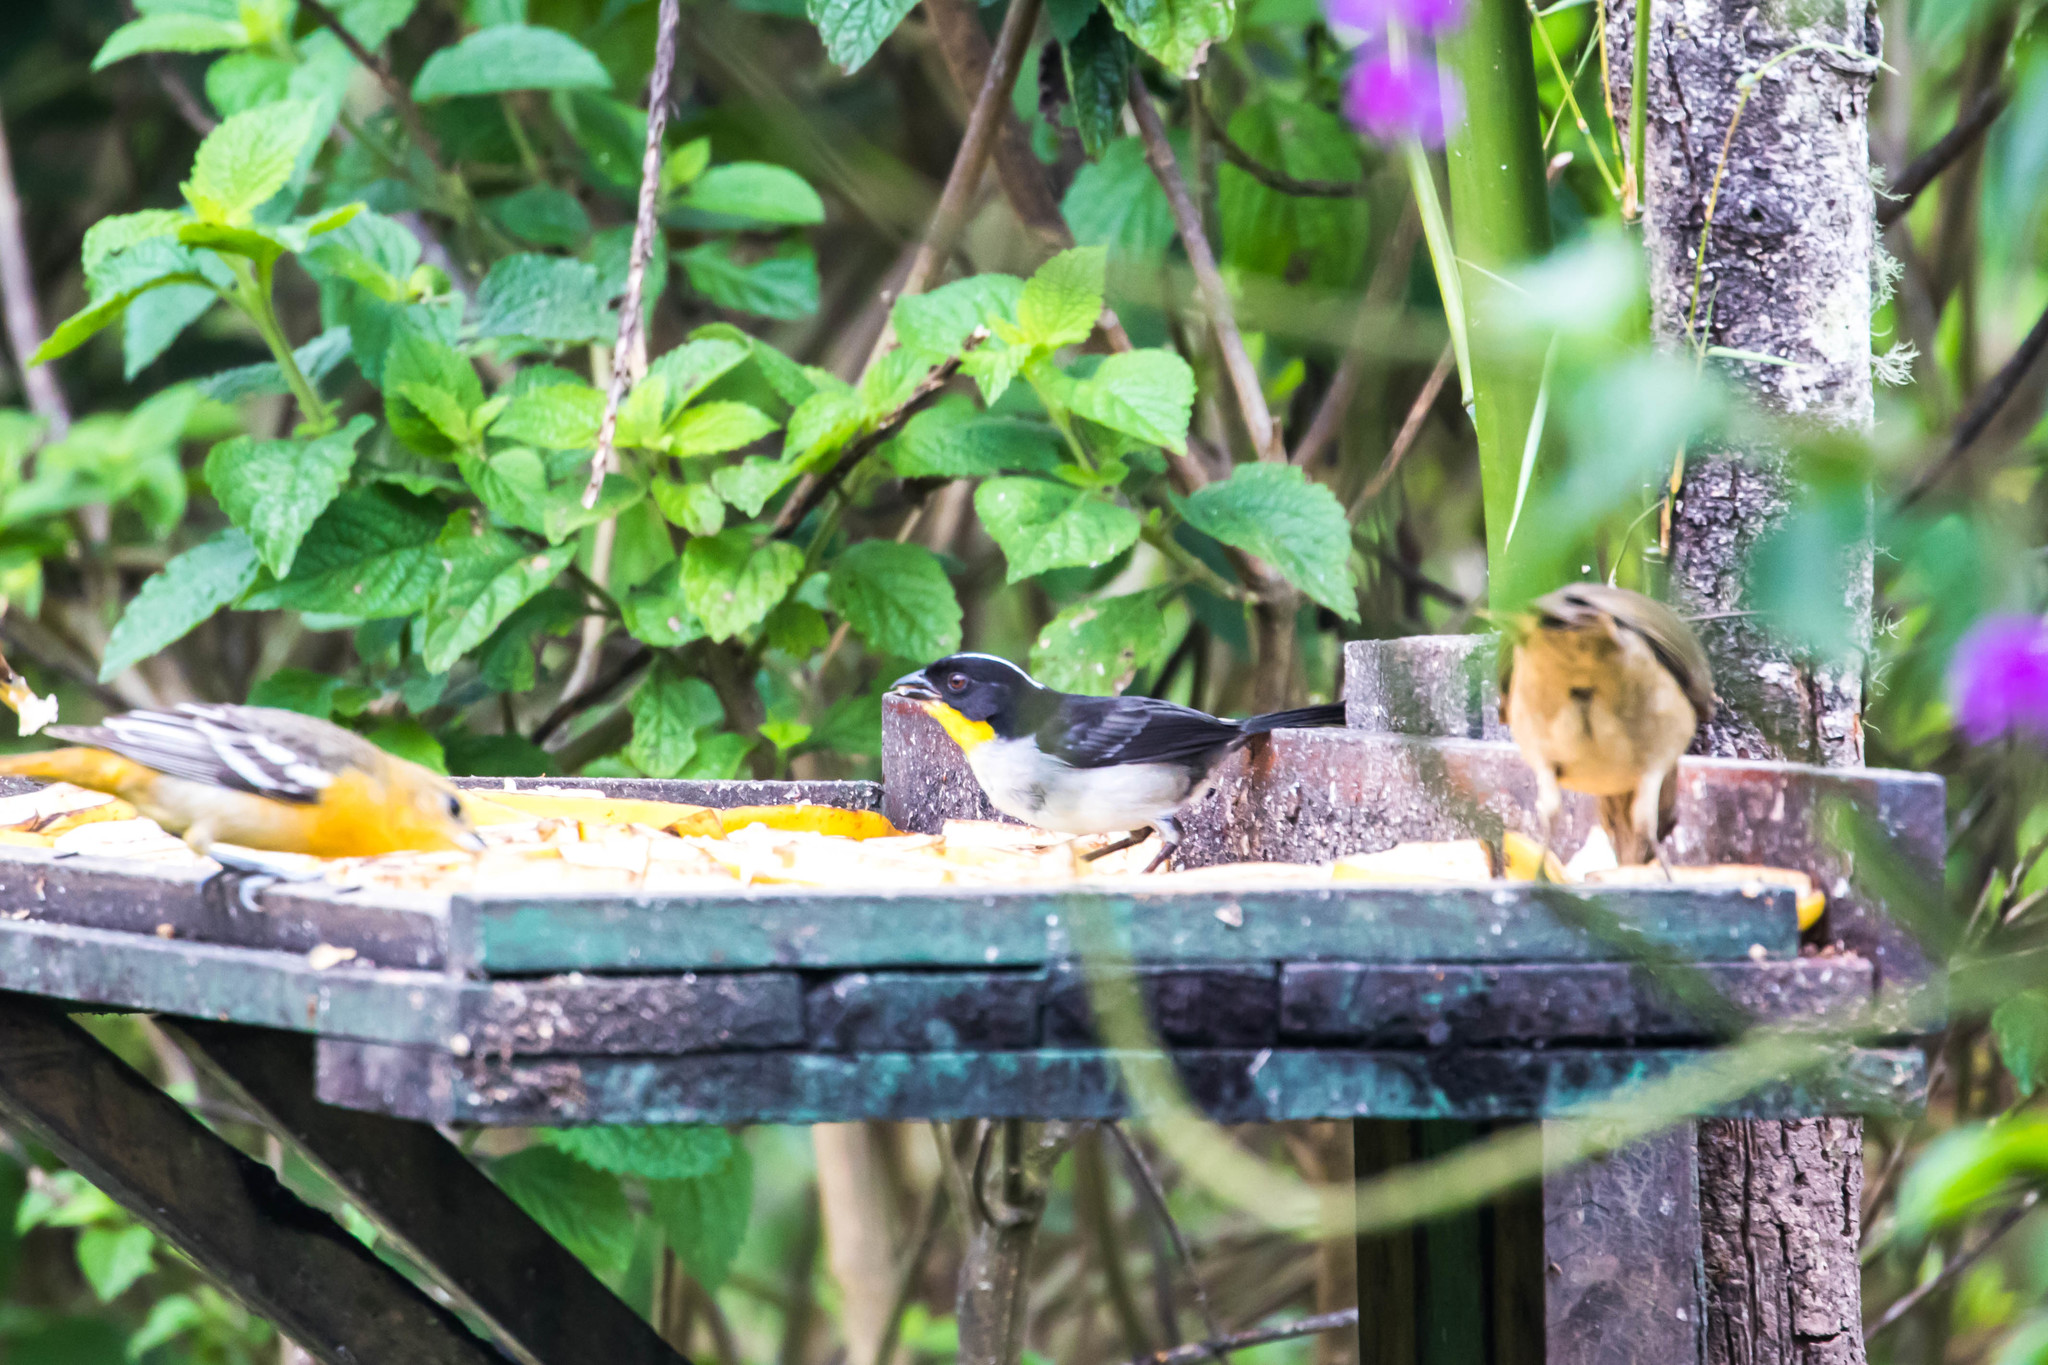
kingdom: Animalia
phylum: Chordata
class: Aves
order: Passeriformes
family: Passerellidae
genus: Atlapetes
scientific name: Atlapetes albinucha
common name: White-naped brush-finch
